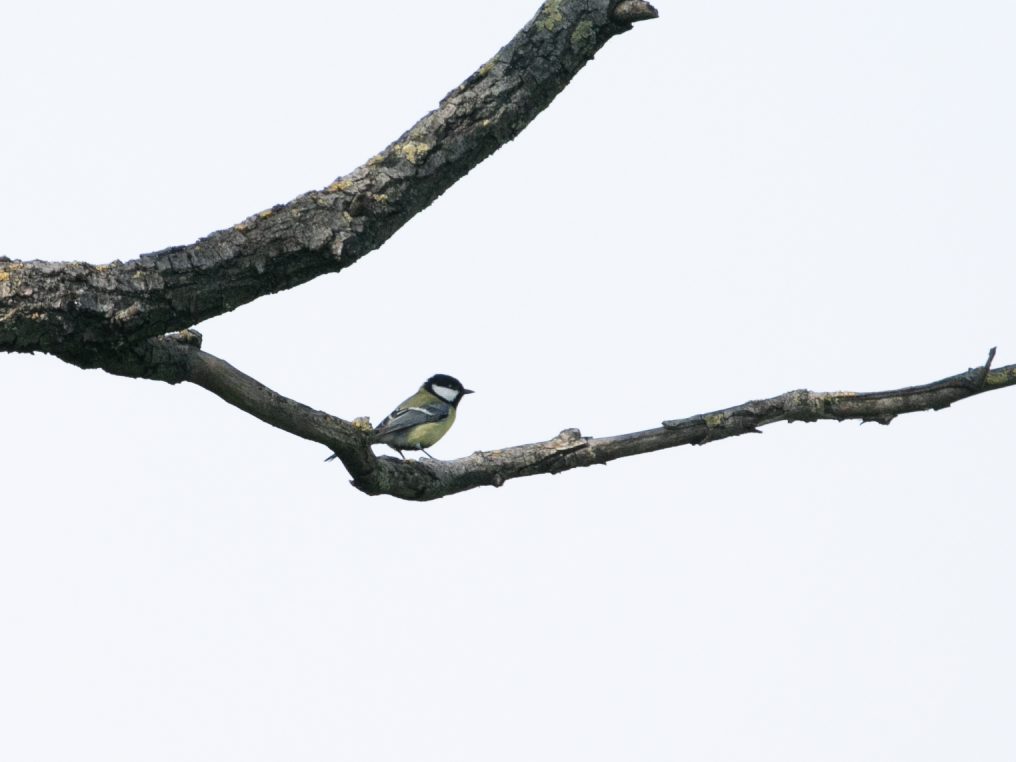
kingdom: Animalia
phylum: Chordata
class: Aves
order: Passeriformes
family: Paridae
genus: Parus
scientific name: Parus major
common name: Great tit
